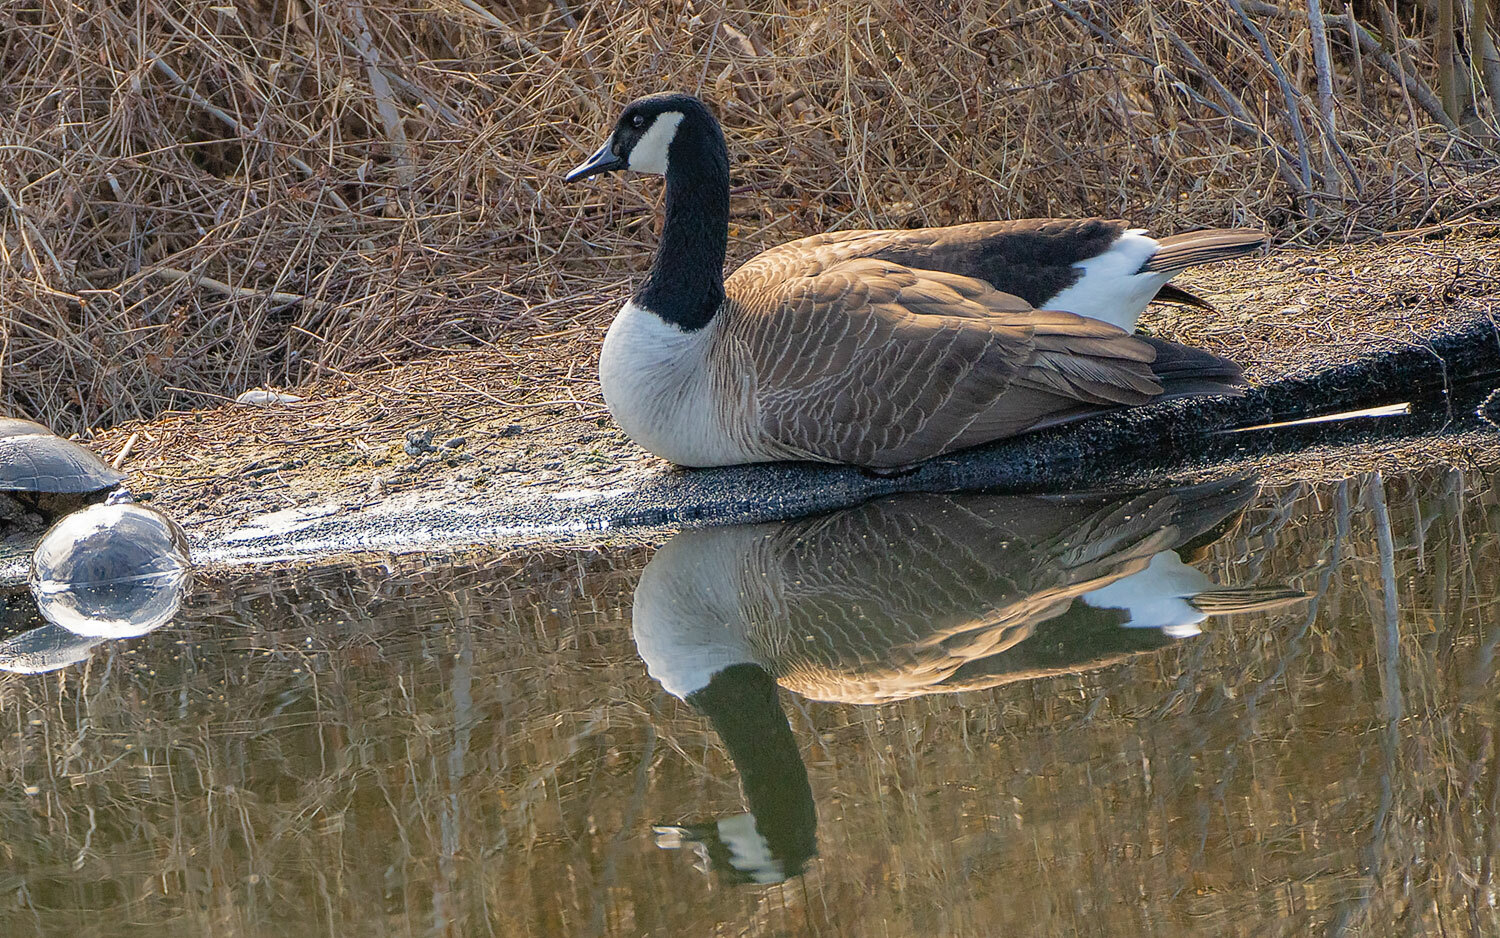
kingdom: Animalia
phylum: Chordata
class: Aves
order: Anseriformes
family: Anatidae
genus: Branta
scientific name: Branta canadensis
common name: Canada goose
